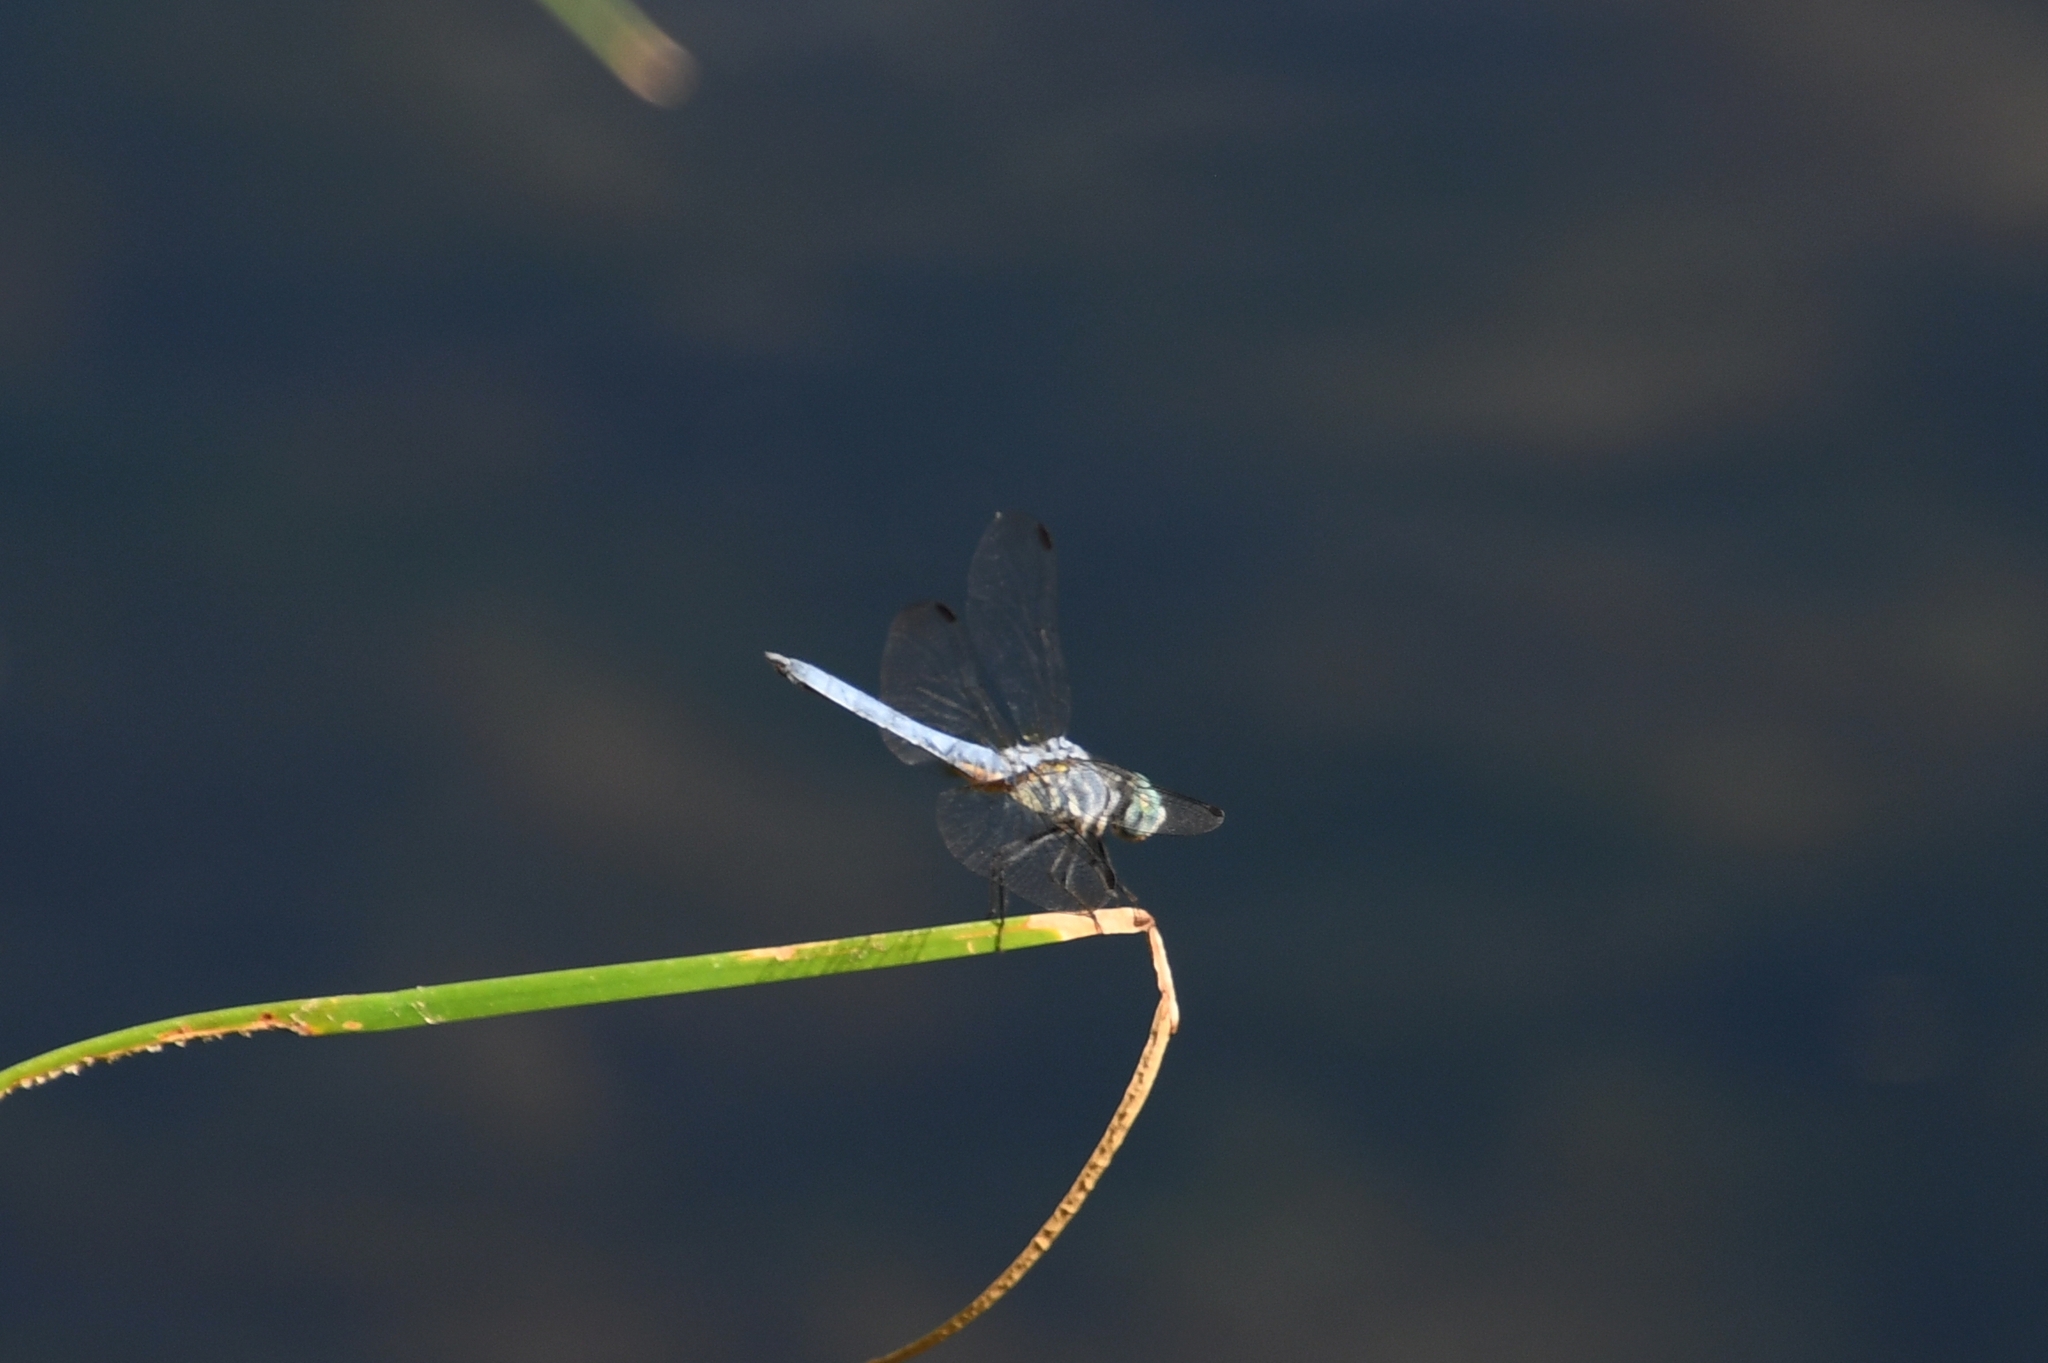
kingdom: Animalia
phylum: Arthropoda
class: Insecta
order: Odonata
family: Libellulidae
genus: Pachydiplax
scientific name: Pachydiplax longipennis
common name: Blue dasher
